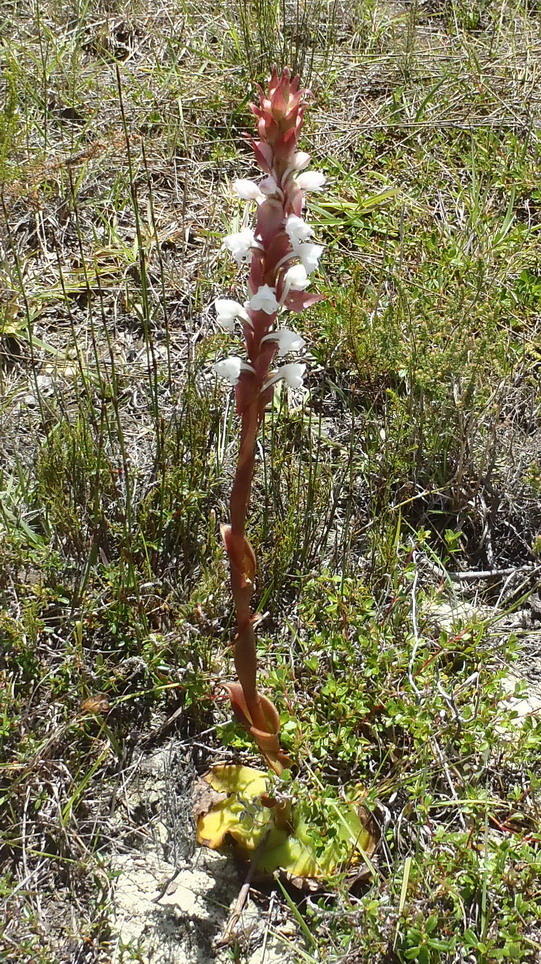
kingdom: Plantae
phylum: Tracheophyta
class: Liliopsida
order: Asparagales
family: Orchidaceae
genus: Satyrium
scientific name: Satyrium acuminatum
